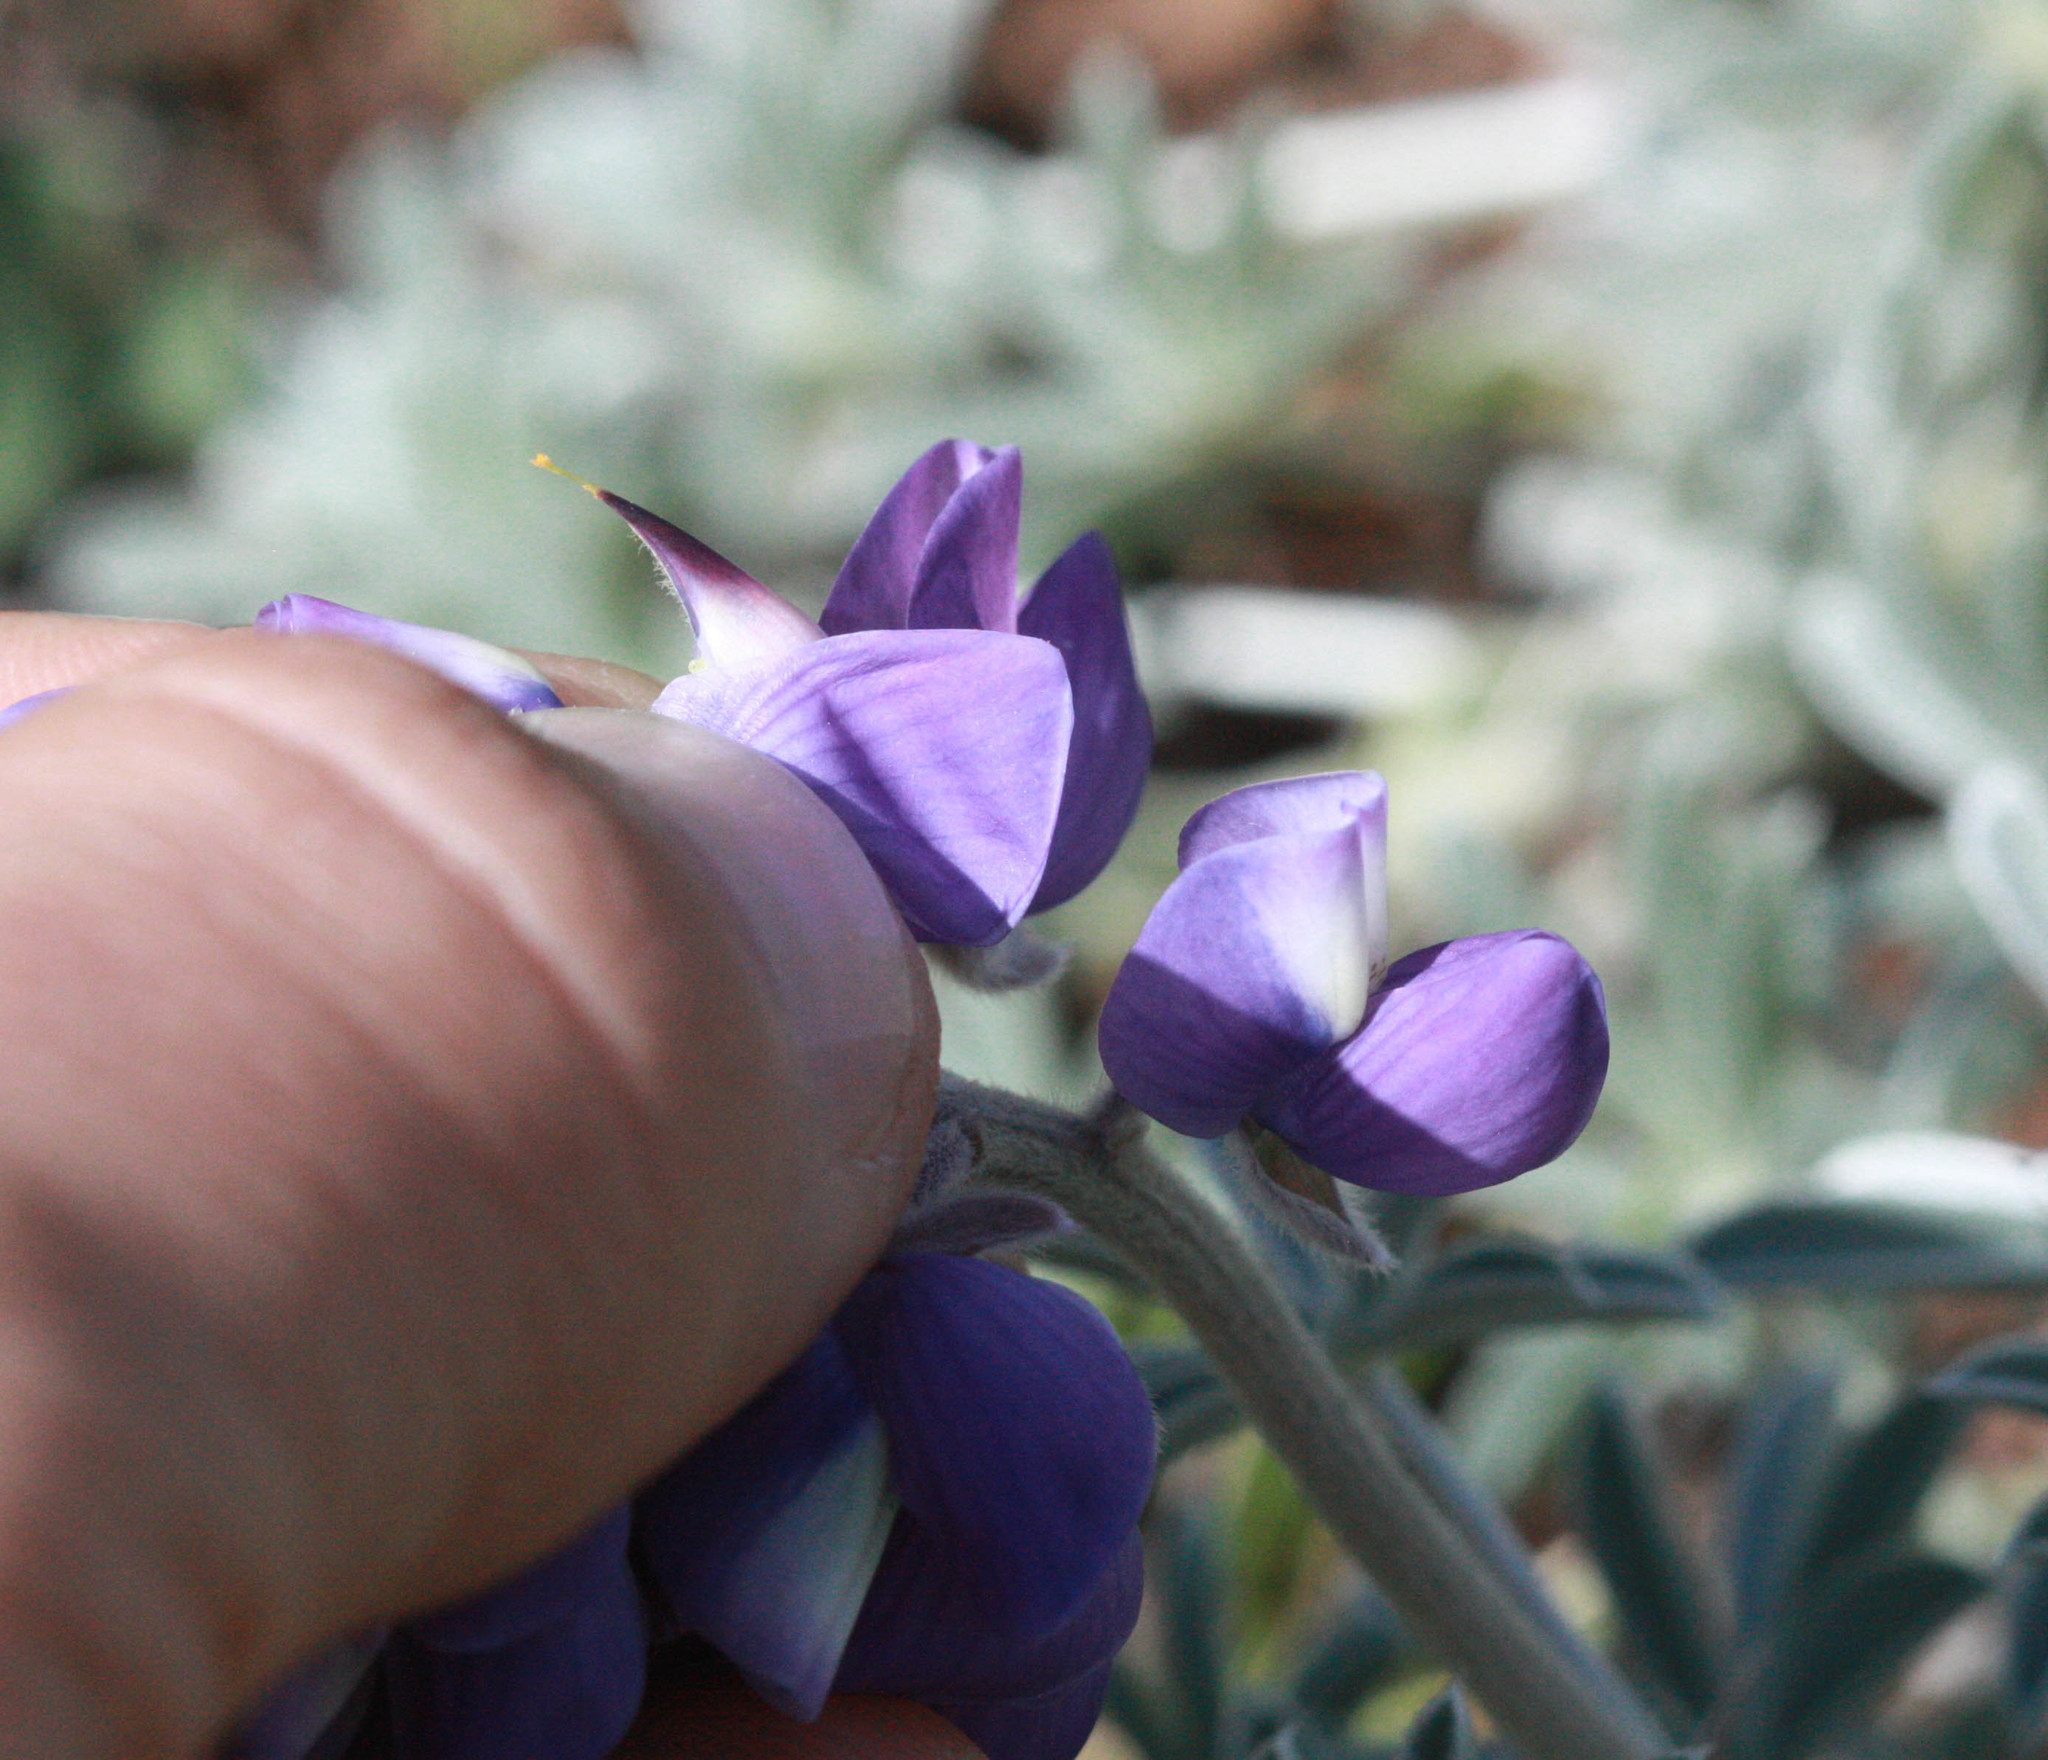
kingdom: Plantae
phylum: Tracheophyta
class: Magnoliopsida
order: Fabales
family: Fabaceae
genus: Lupinus
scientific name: Lupinus albifrons
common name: Foothill lupine
